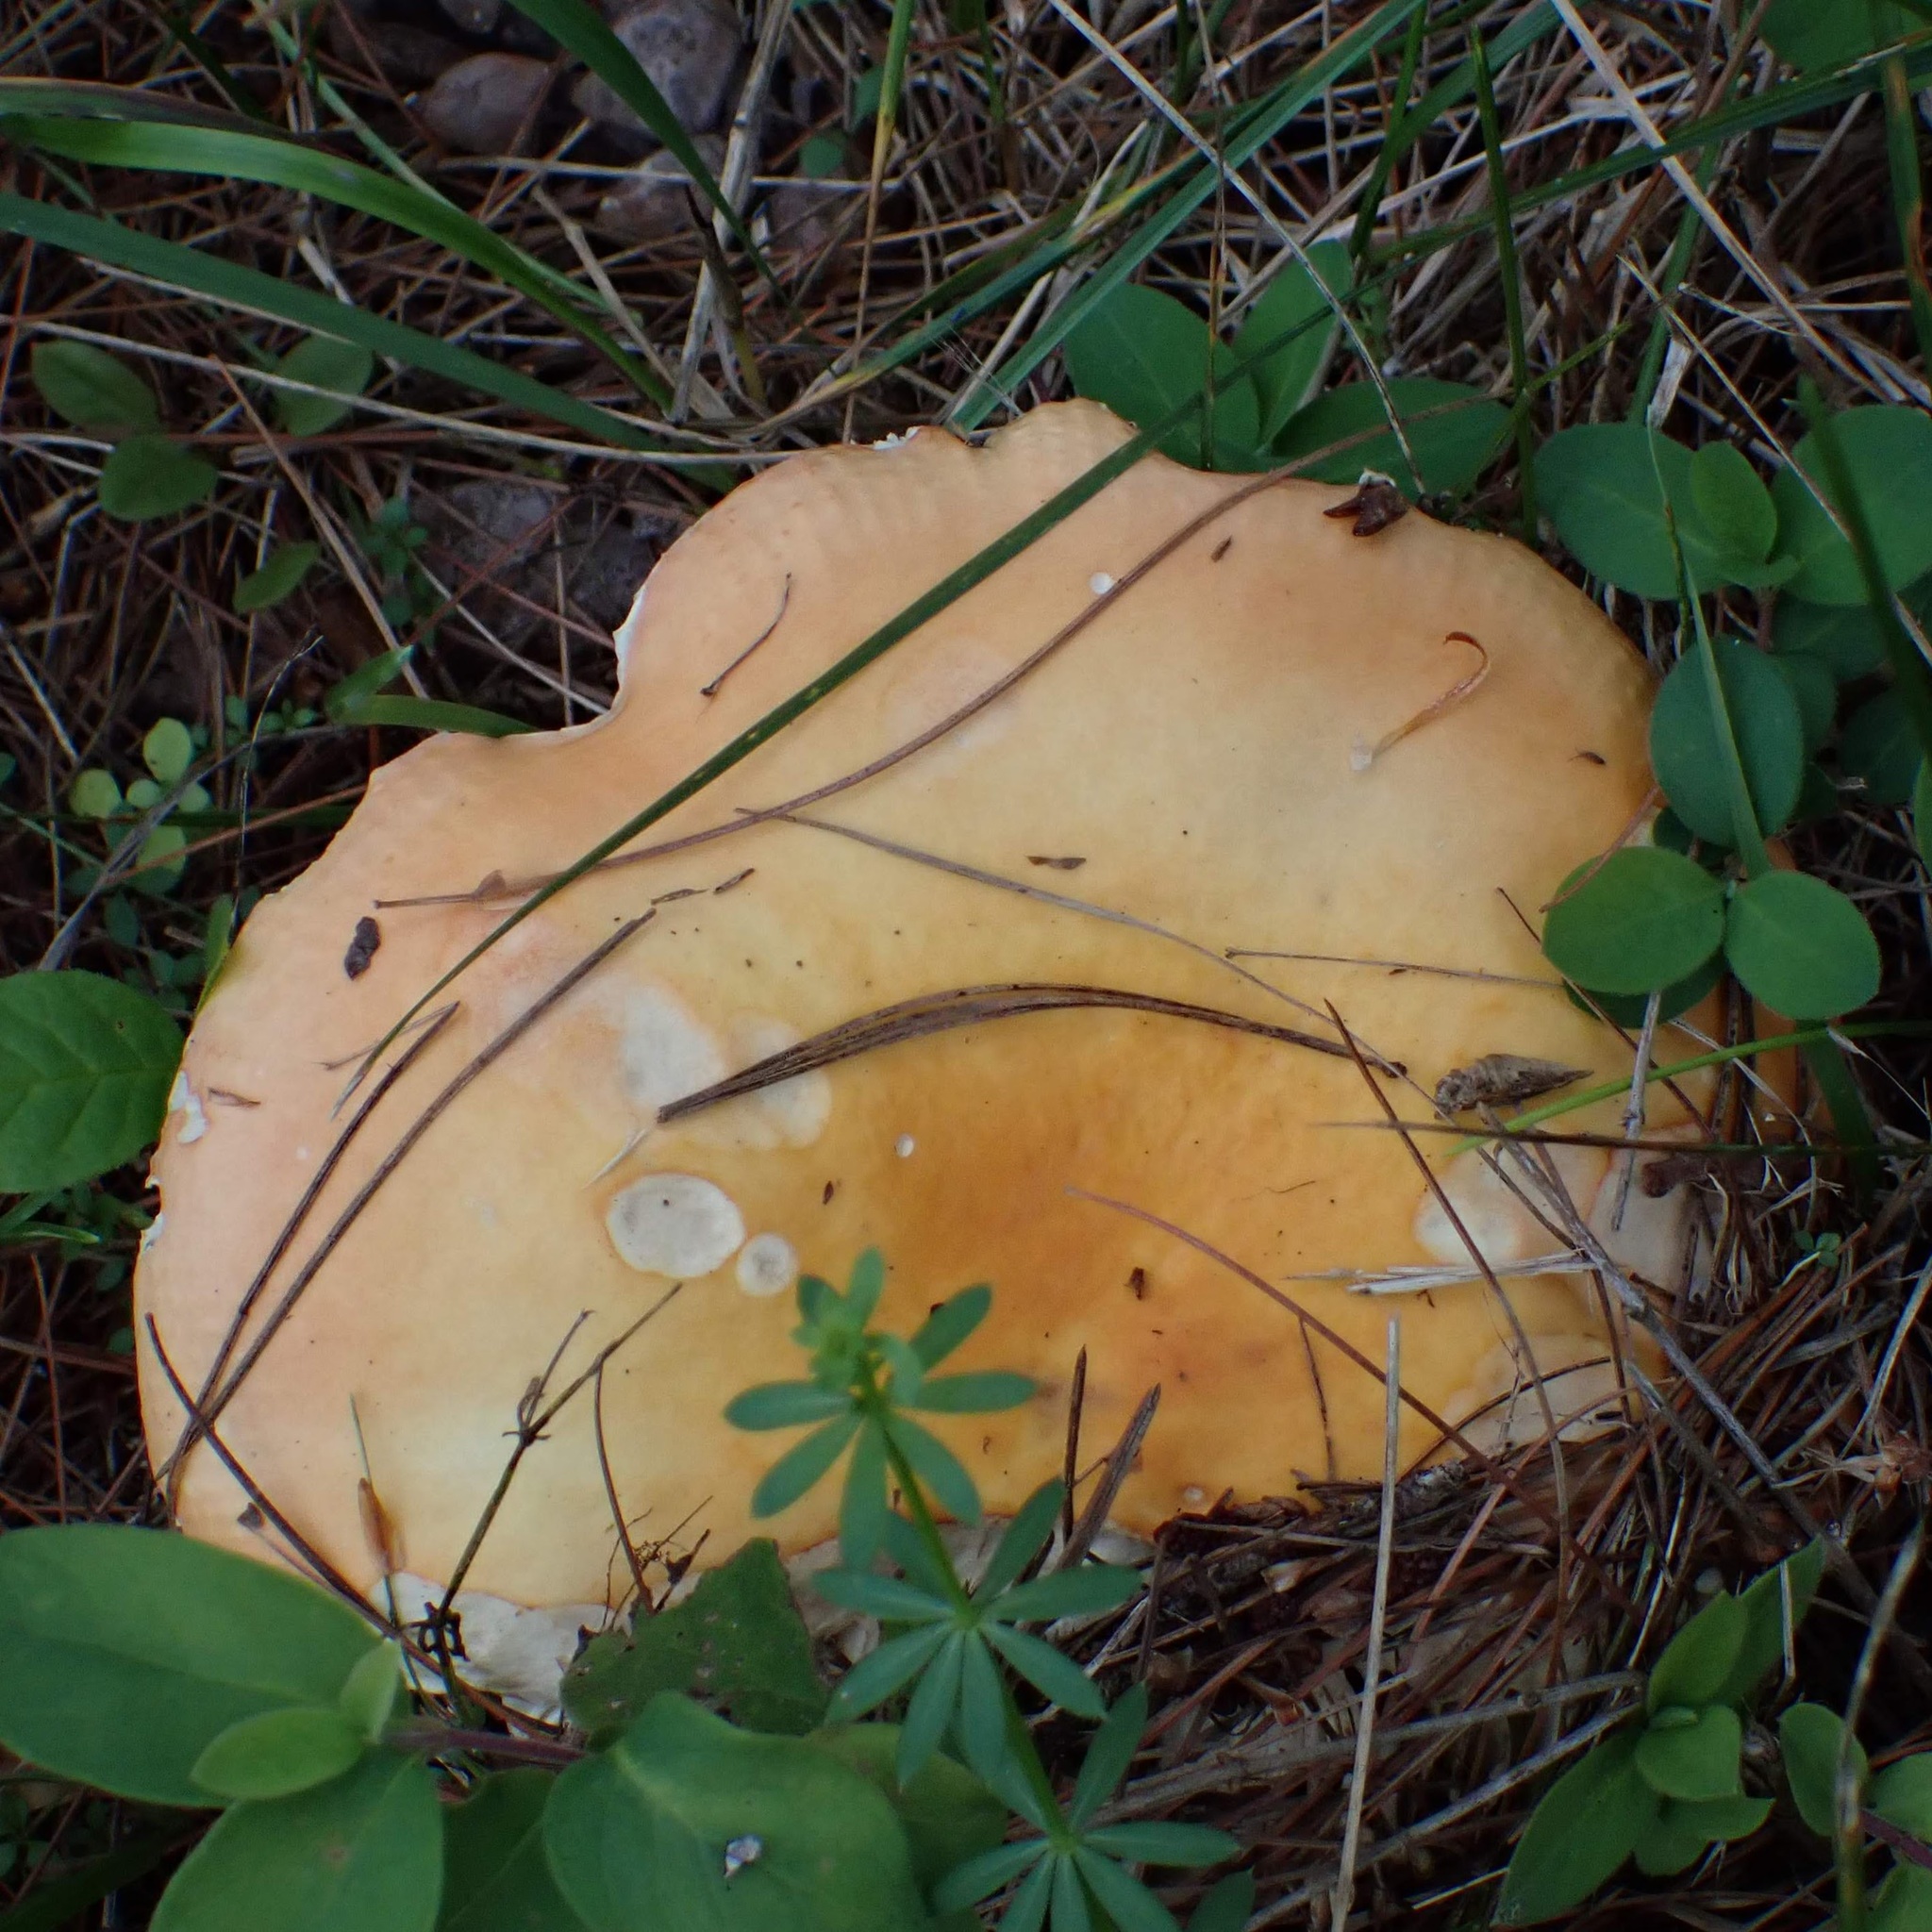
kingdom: Fungi
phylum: Basidiomycota
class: Agaricomycetes
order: Russulales
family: Russulaceae
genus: Russula
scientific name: Russula
